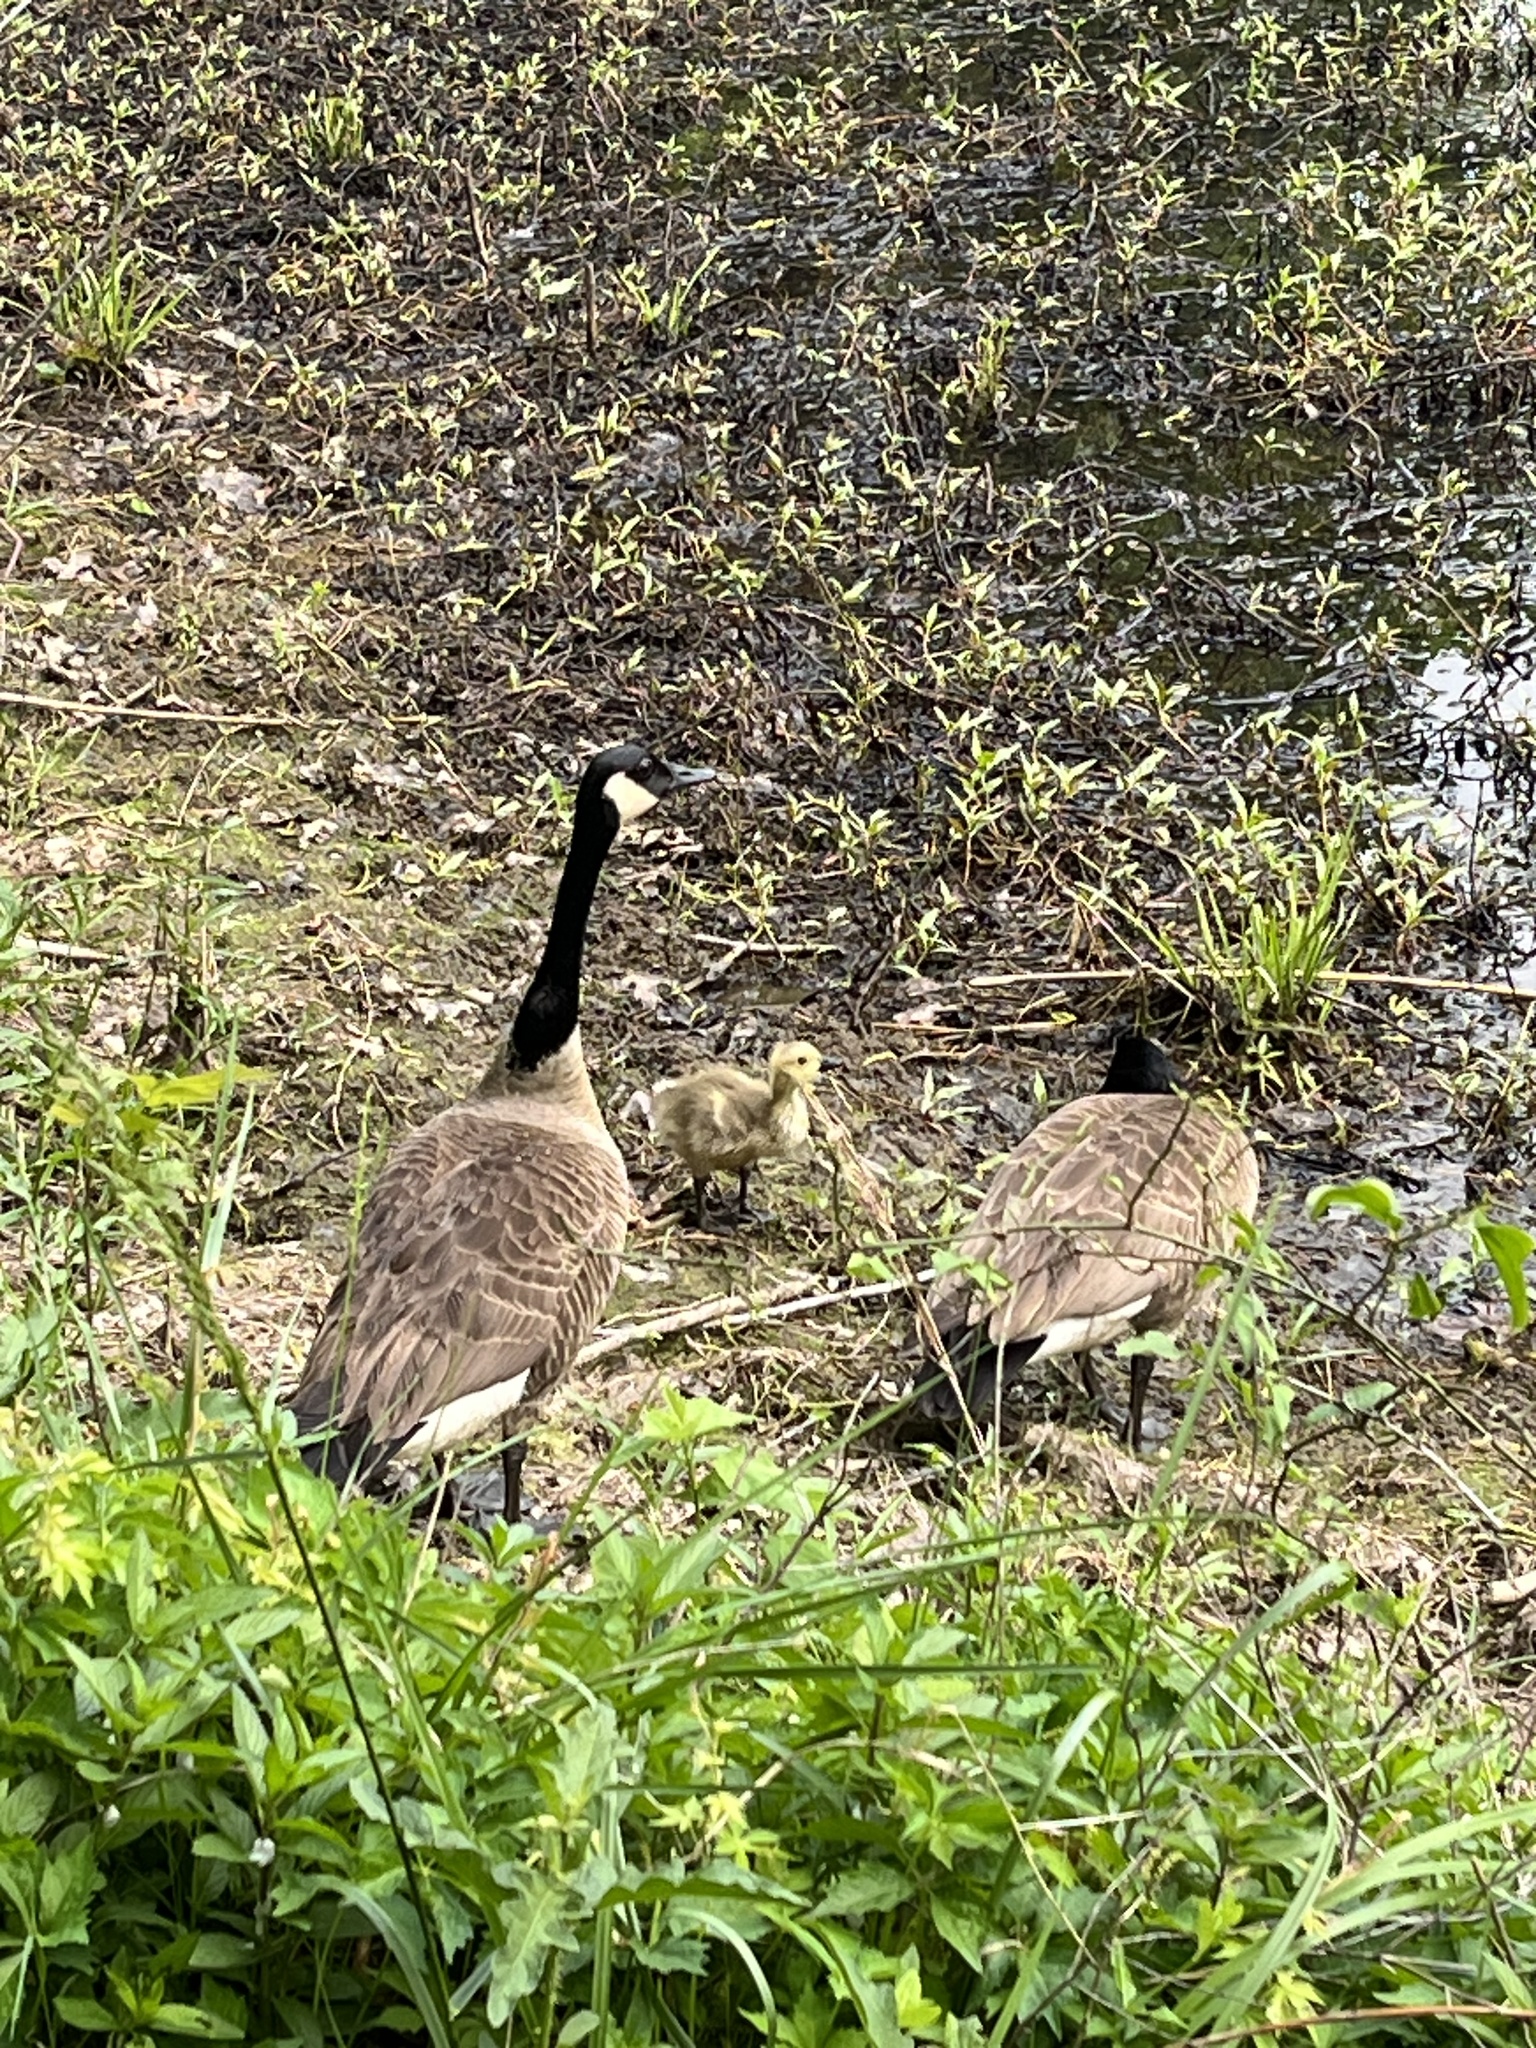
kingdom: Animalia
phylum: Chordata
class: Aves
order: Anseriformes
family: Anatidae
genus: Branta
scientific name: Branta canadensis
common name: Canada goose
